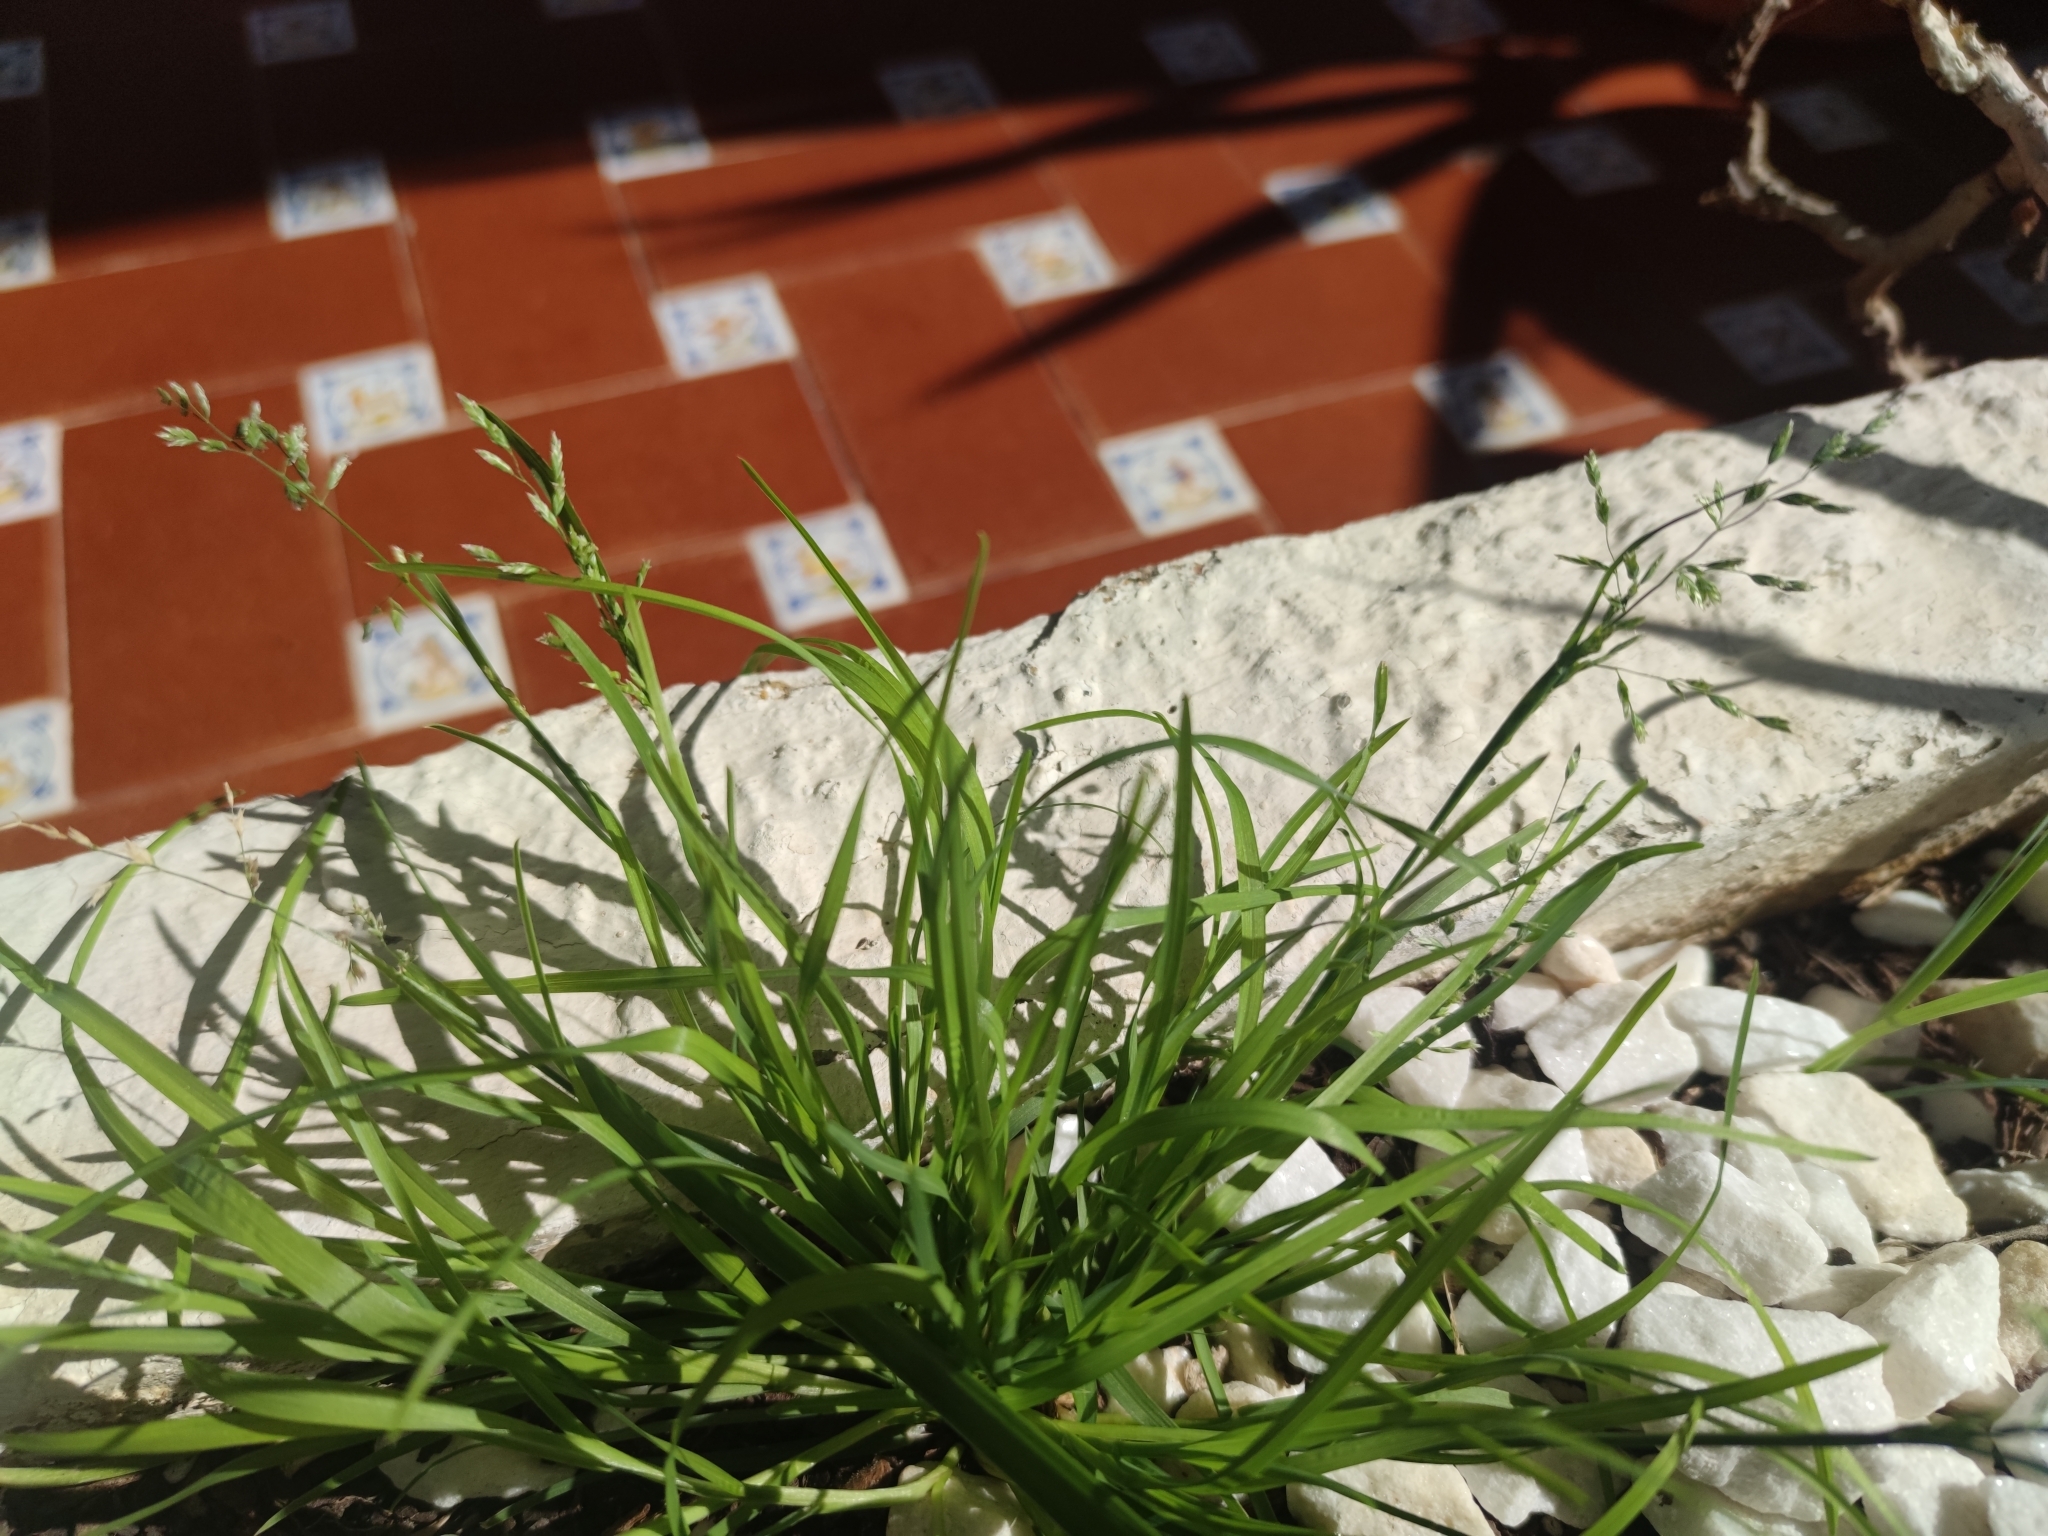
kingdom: Plantae
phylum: Tracheophyta
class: Liliopsida
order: Poales
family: Poaceae
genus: Poa
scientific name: Poa annua
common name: Annual bluegrass
